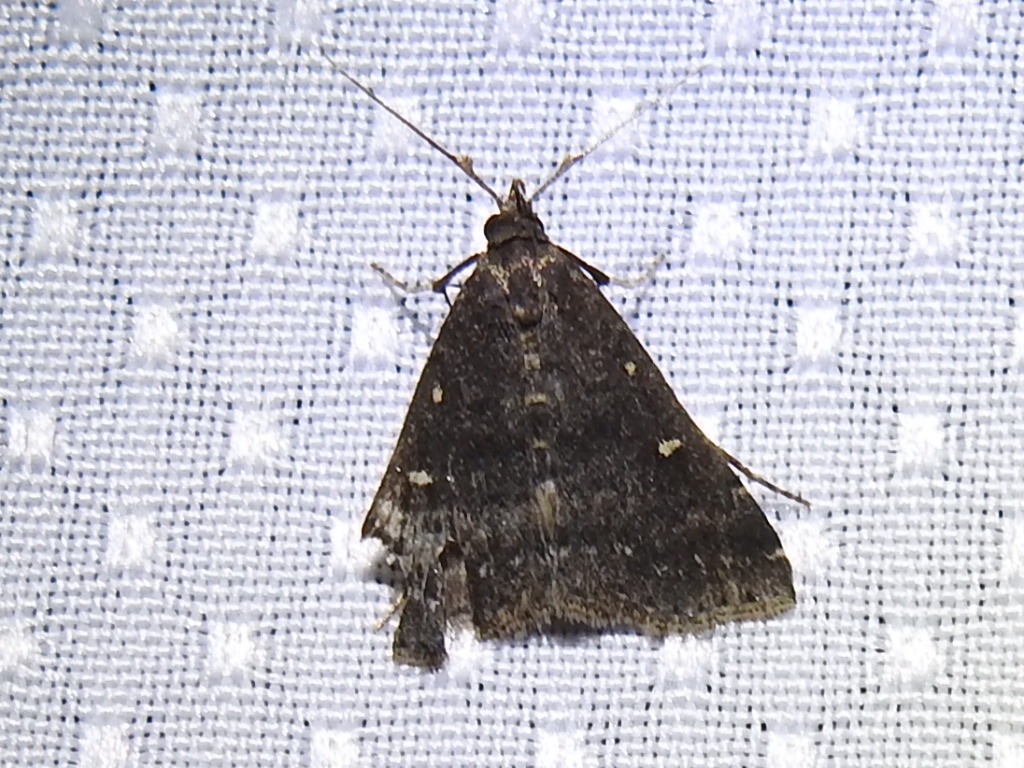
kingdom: Animalia
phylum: Arthropoda
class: Insecta
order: Lepidoptera
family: Erebidae
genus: Tetanolita
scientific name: Tetanolita mynesalis
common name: Smoky tetanolita moth
